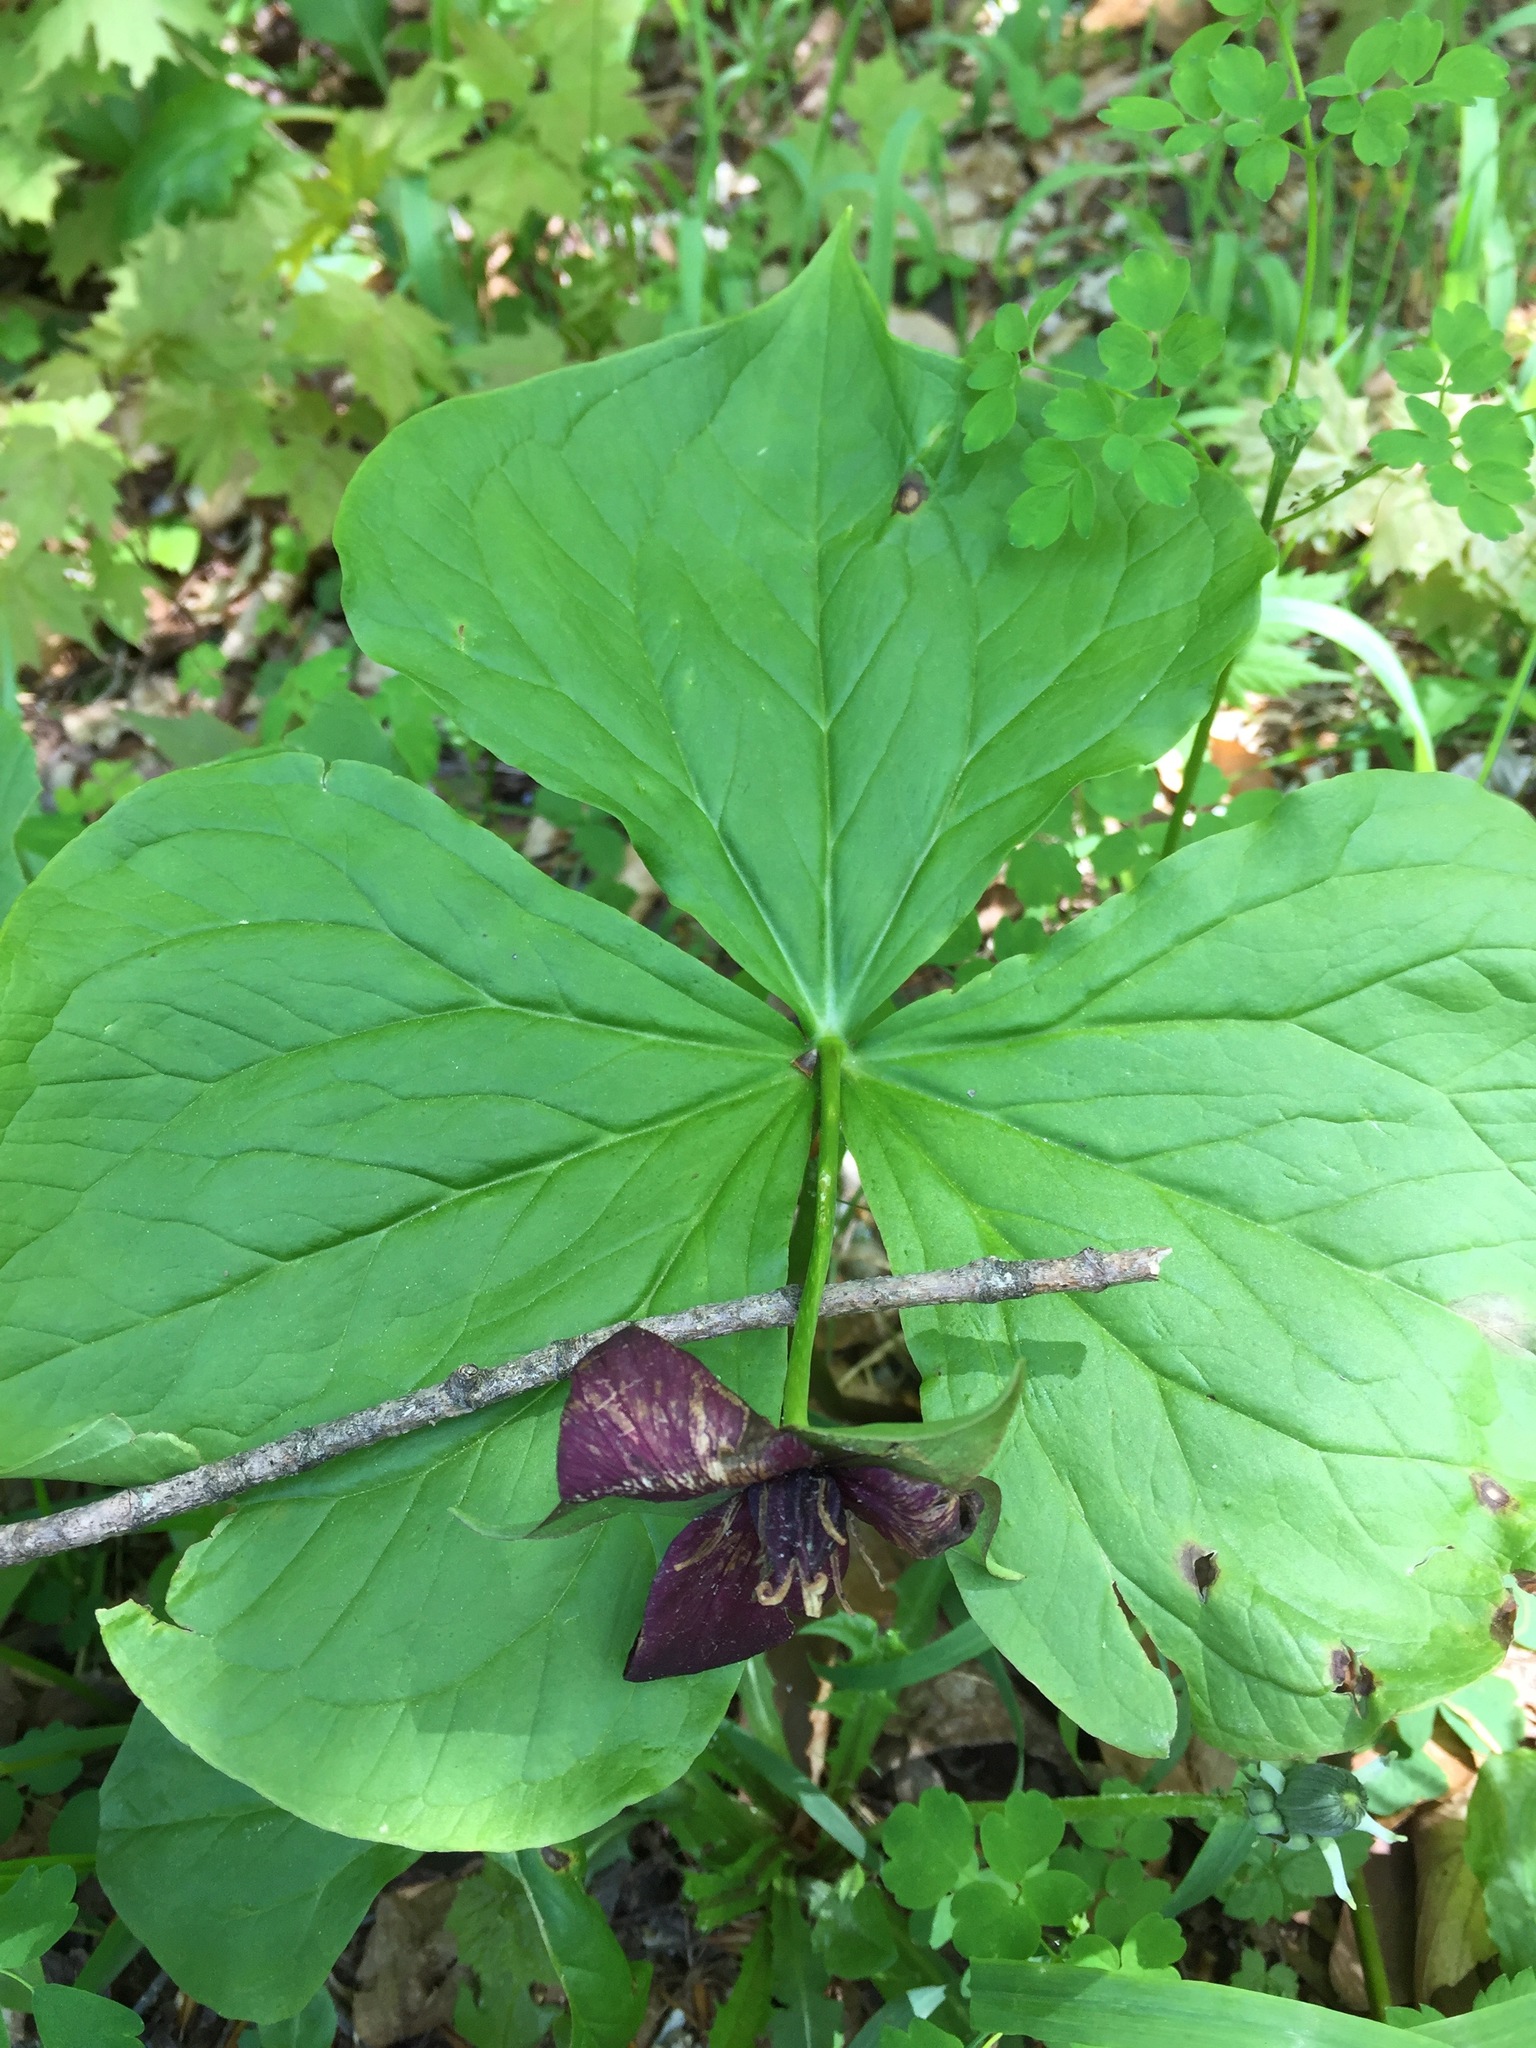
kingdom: Plantae
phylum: Tracheophyta
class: Liliopsida
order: Liliales
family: Melanthiaceae
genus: Trillium
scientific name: Trillium erectum
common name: Purple trillium
